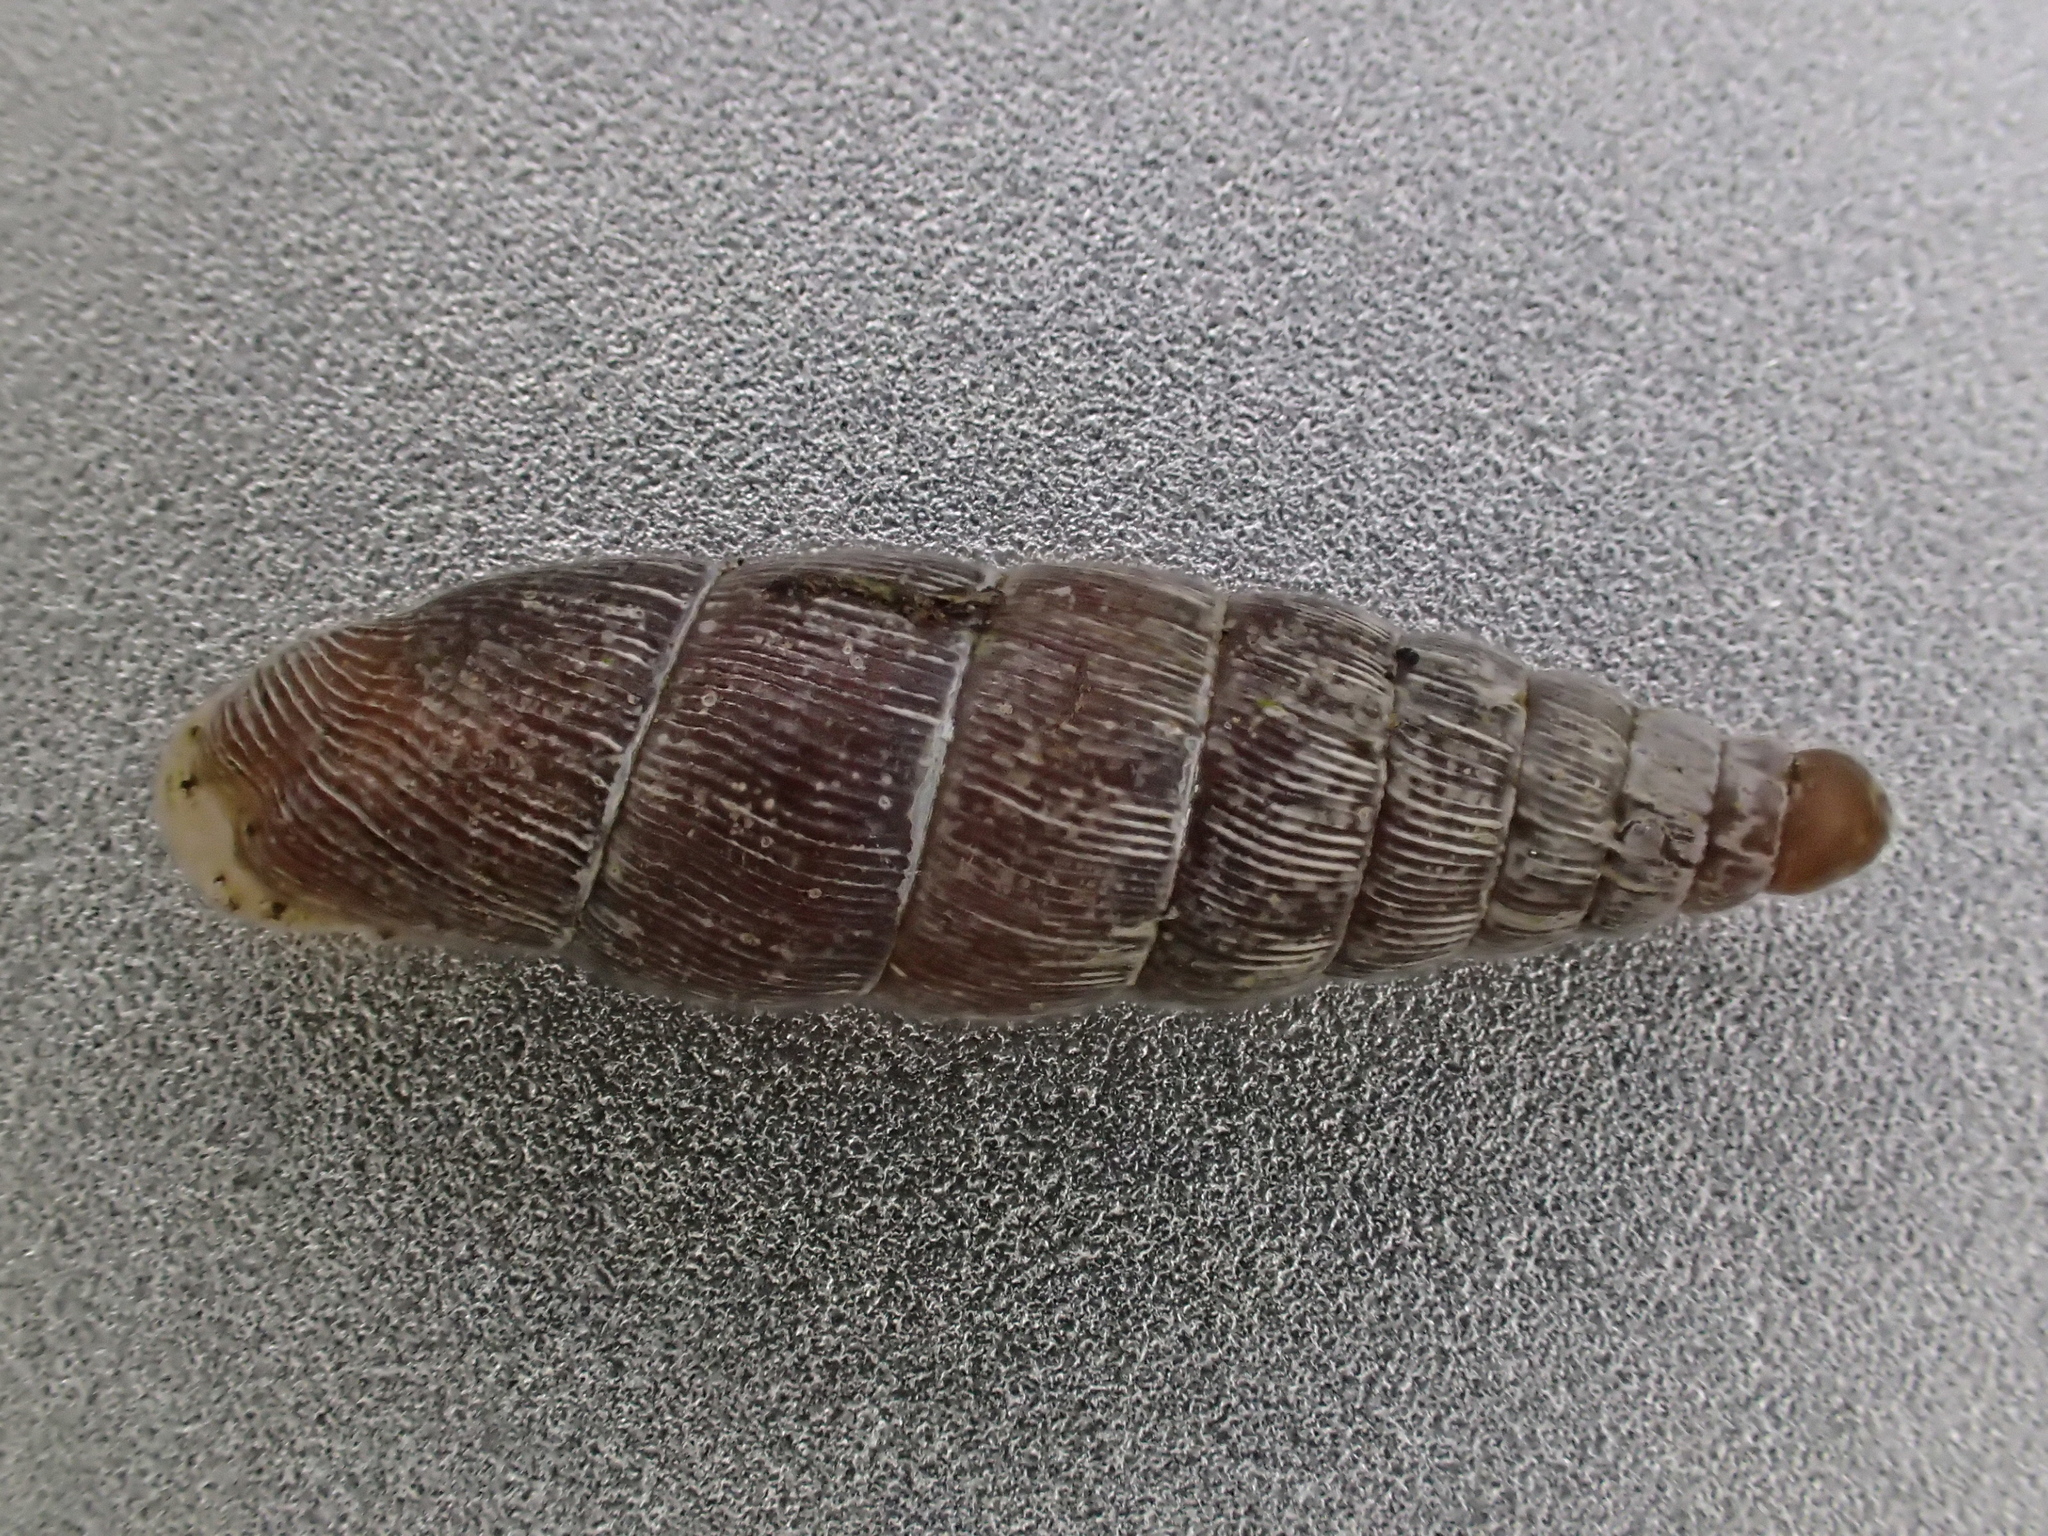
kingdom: Animalia
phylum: Mollusca
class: Gastropoda
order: Stylommatophora
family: Clausiliidae
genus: Clausilia
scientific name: Clausilia bidentata
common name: Two-toothed door snail
